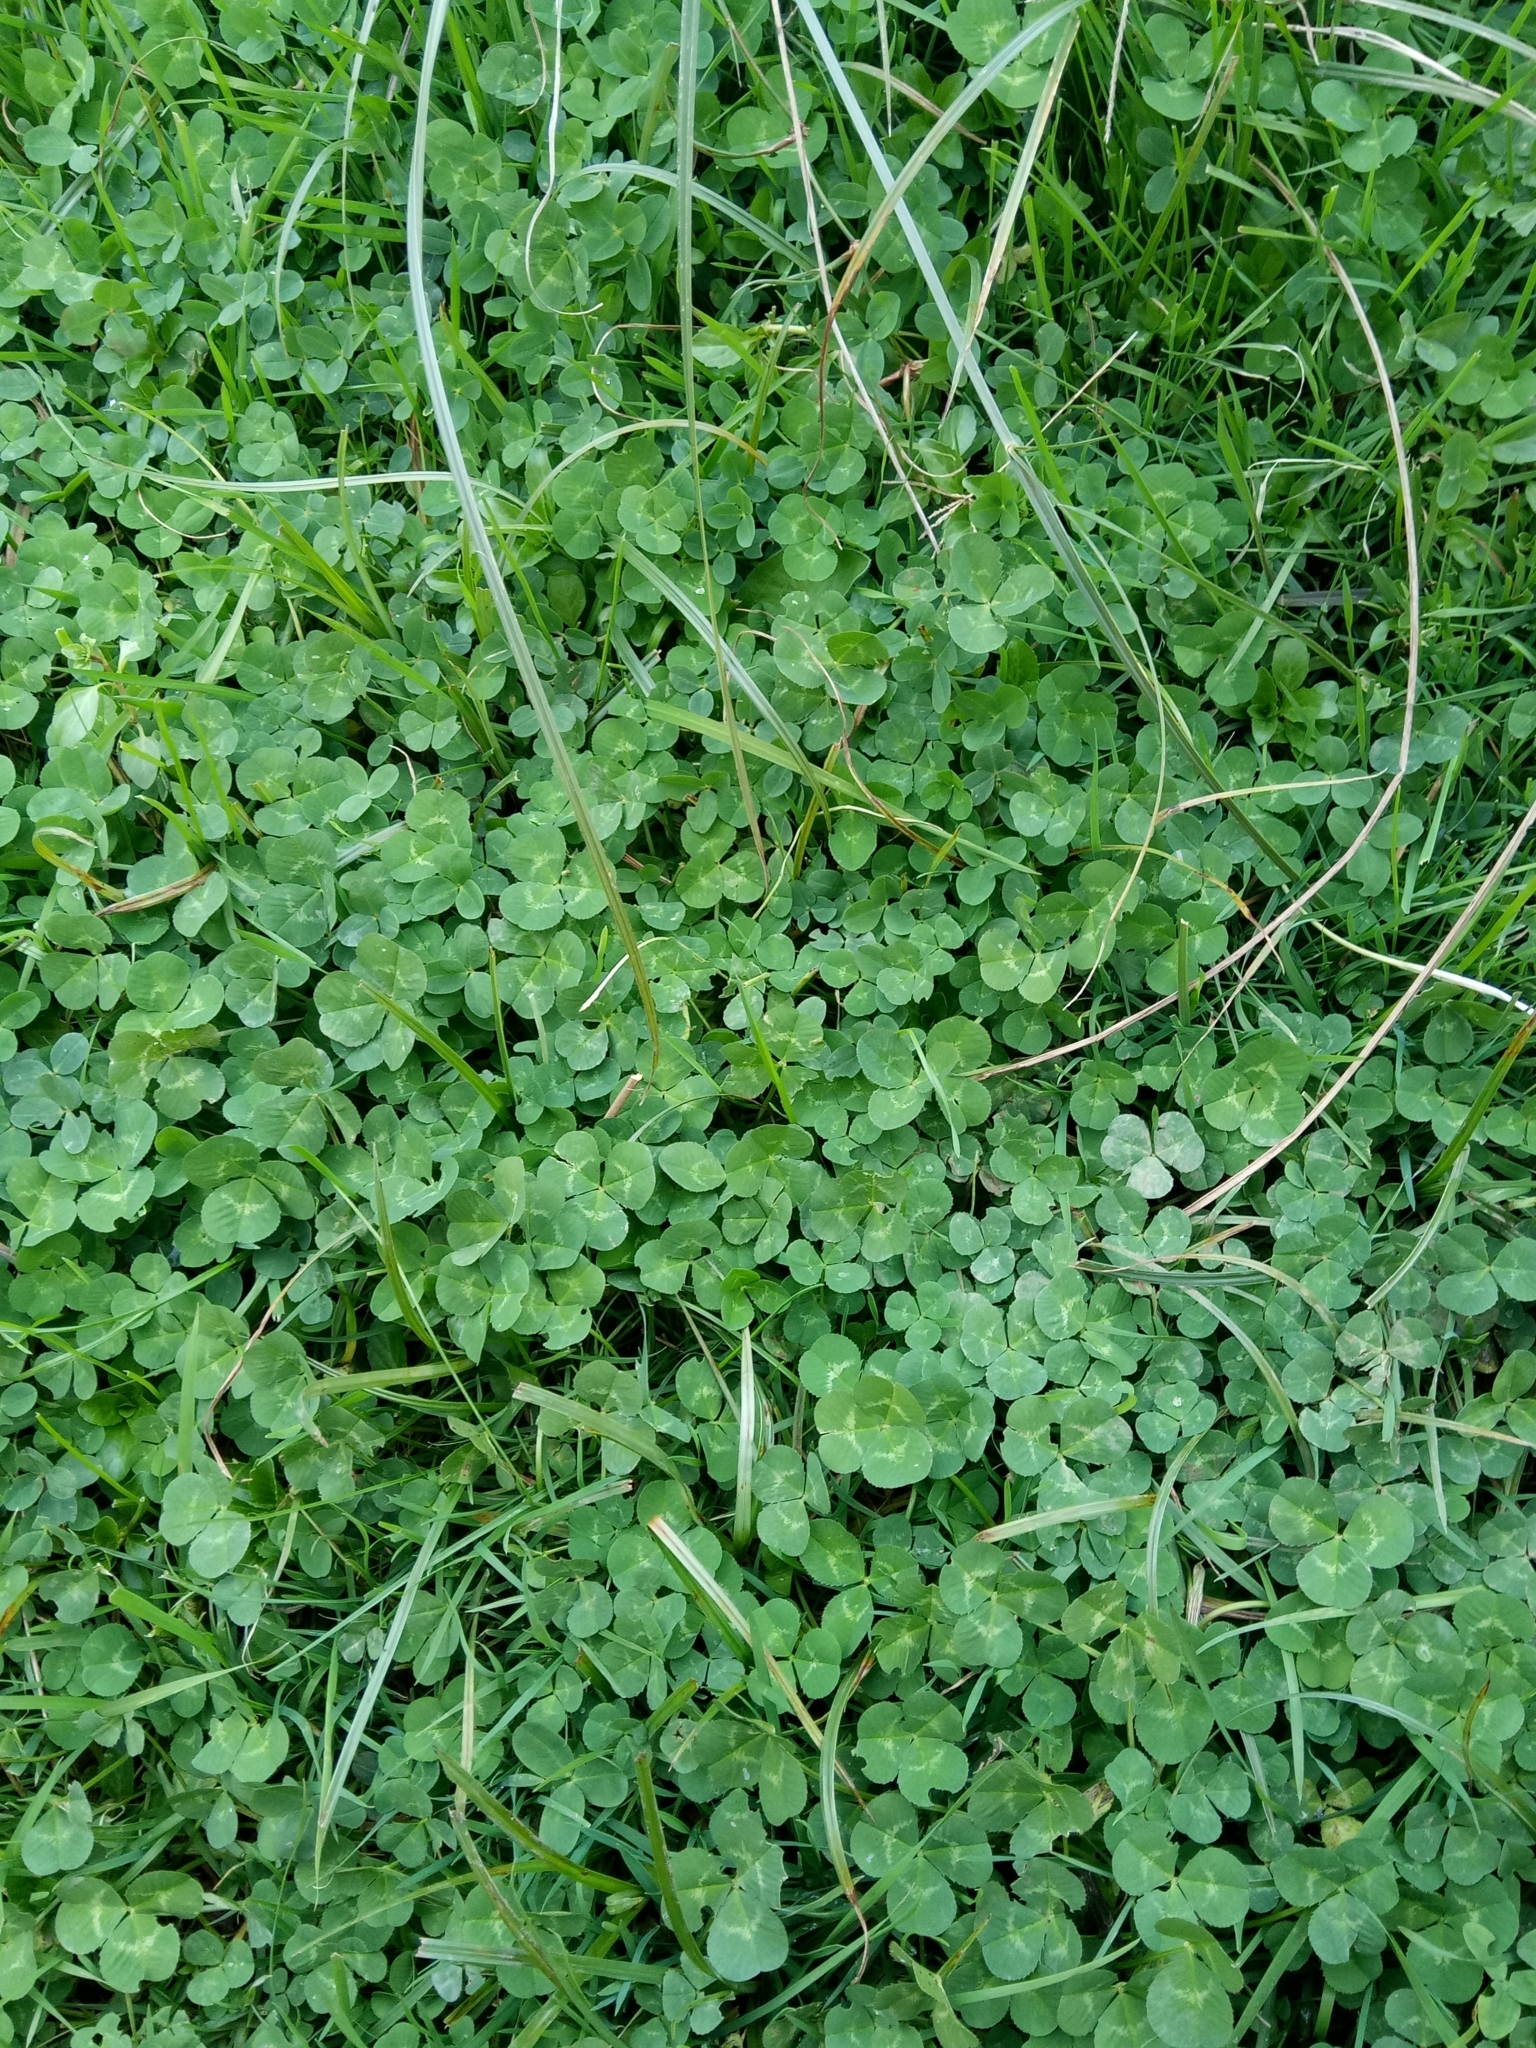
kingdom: Plantae
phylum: Tracheophyta
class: Magnoliopsida
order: Fabales
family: Fabaceae
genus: Trifolium
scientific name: Trifolium repens
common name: White clover
